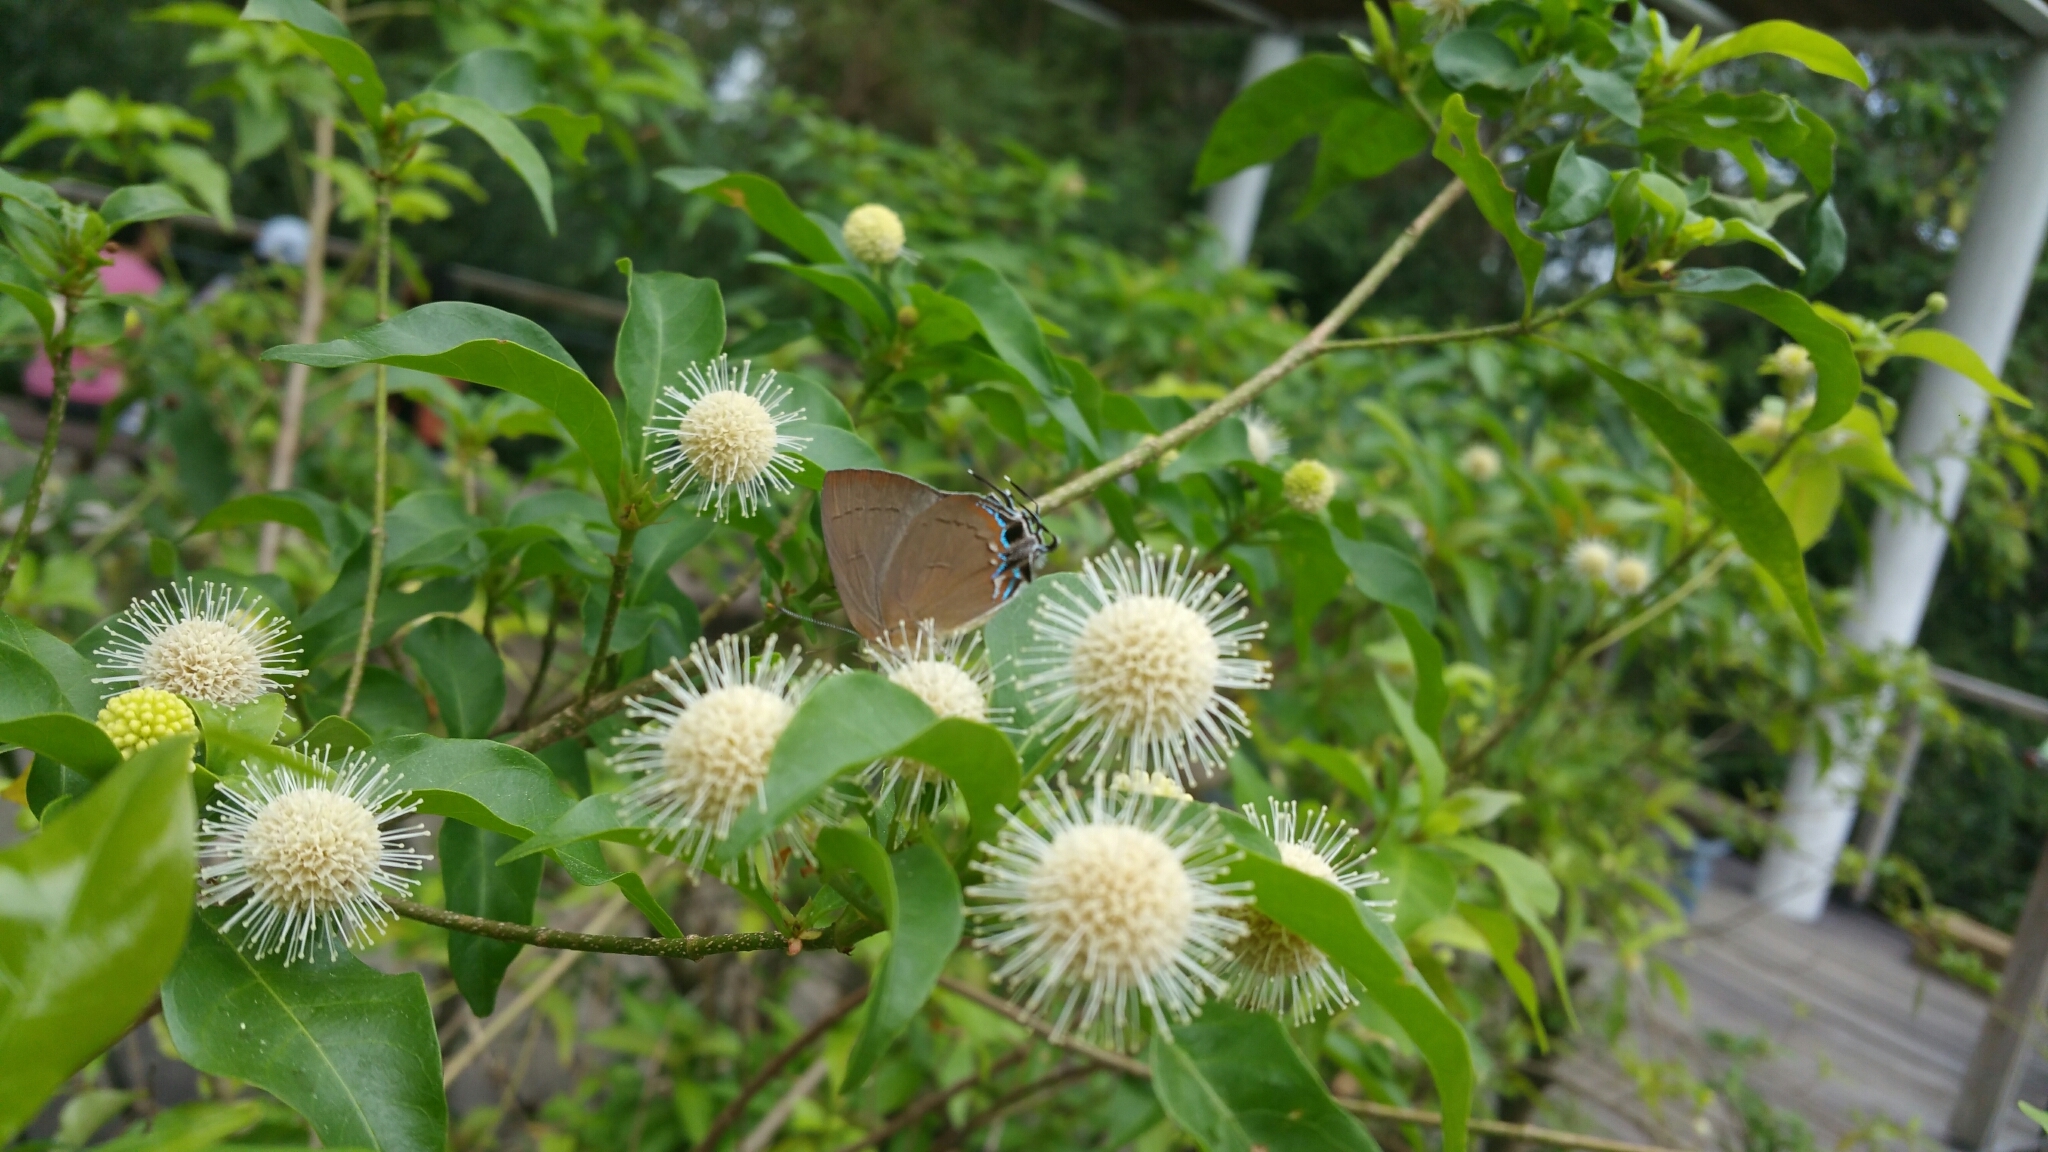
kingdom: Animalia
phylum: Arthropoda
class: Insecta
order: Lepidoptera
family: Lycaenidae
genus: Remelana
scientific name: Remelana jangala
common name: Chocolate royal
